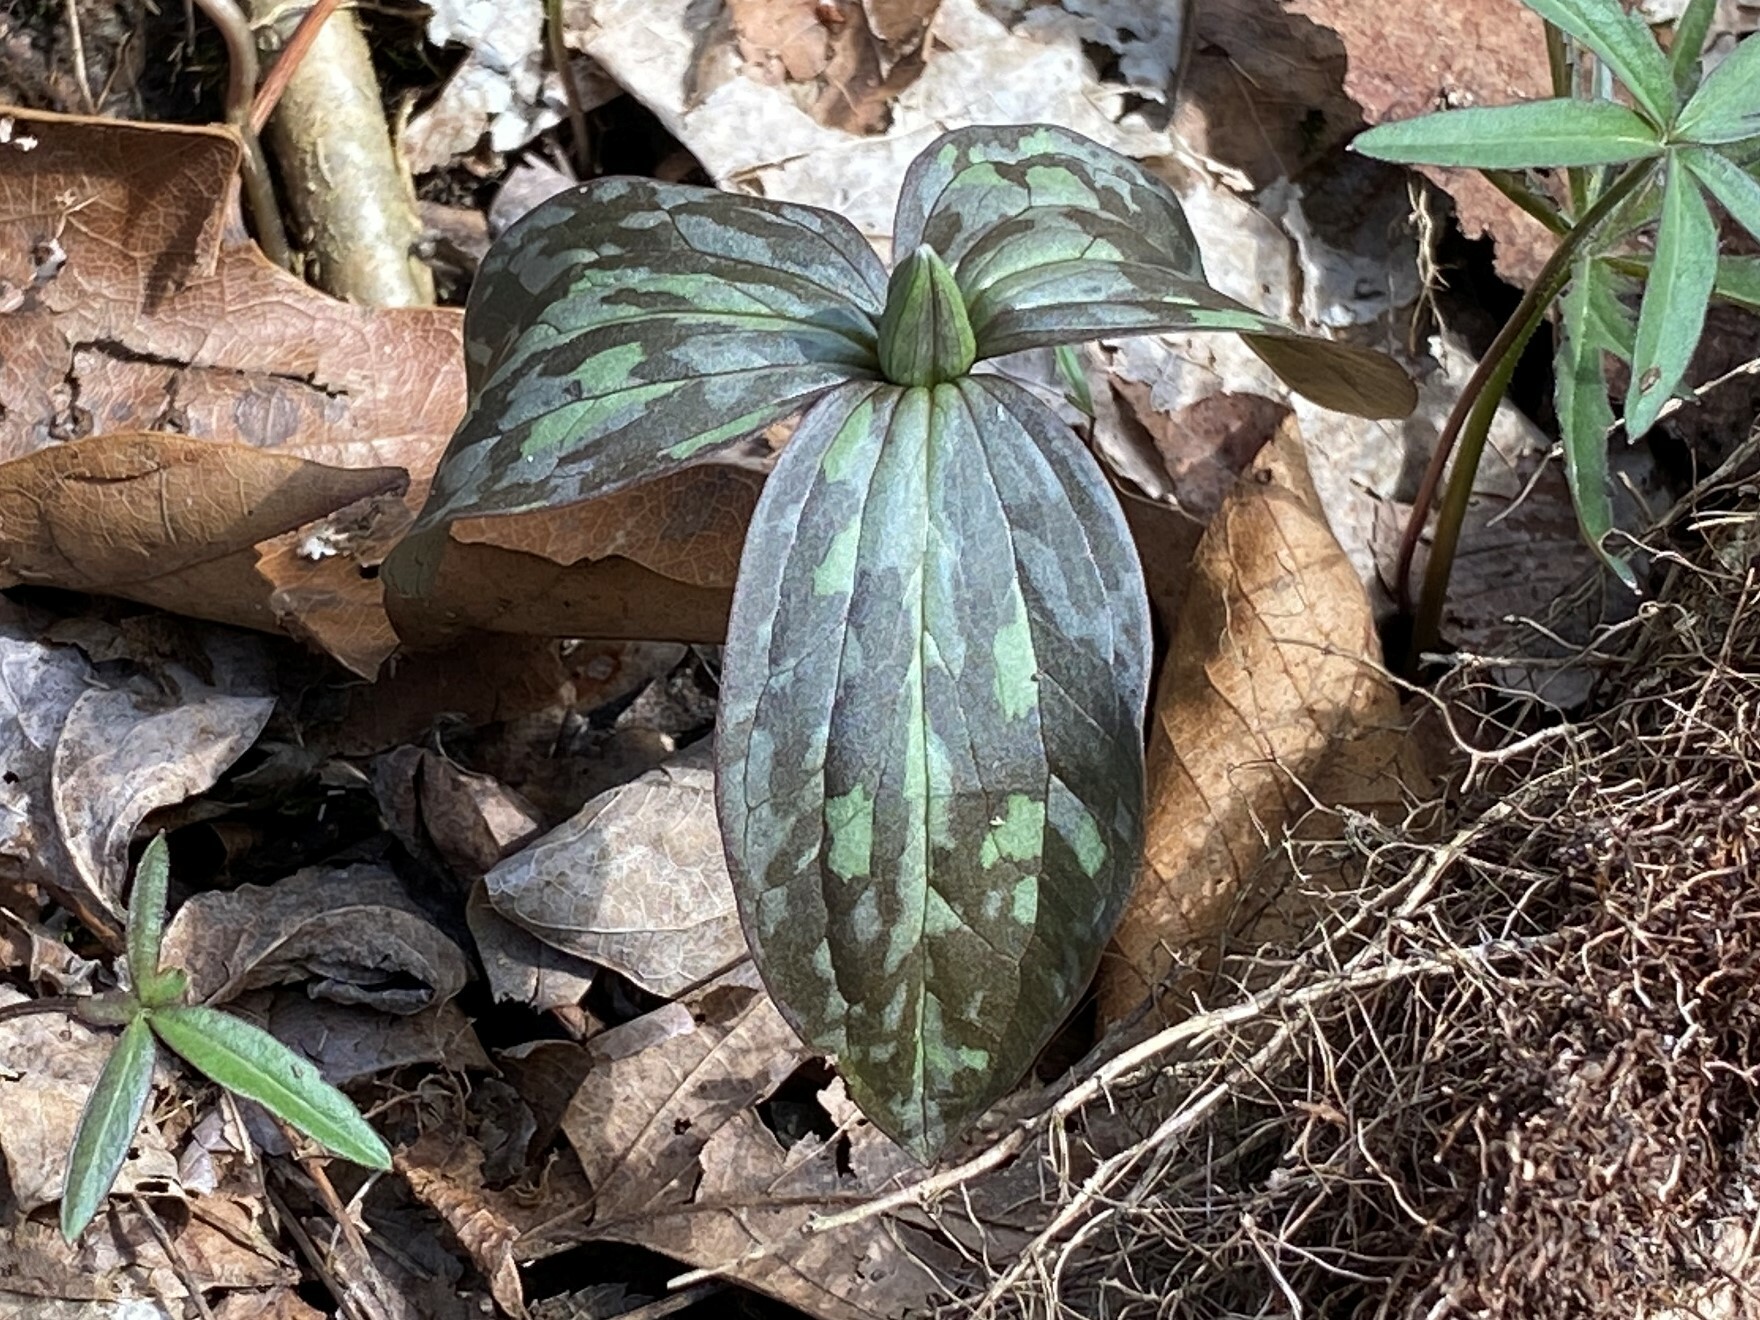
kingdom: Plantae
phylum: Tracheophyta
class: Liliopsida
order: Liliales
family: Melanthiaceae
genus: Trillium
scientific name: Trillium recurvatum
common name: Bloody butcher
